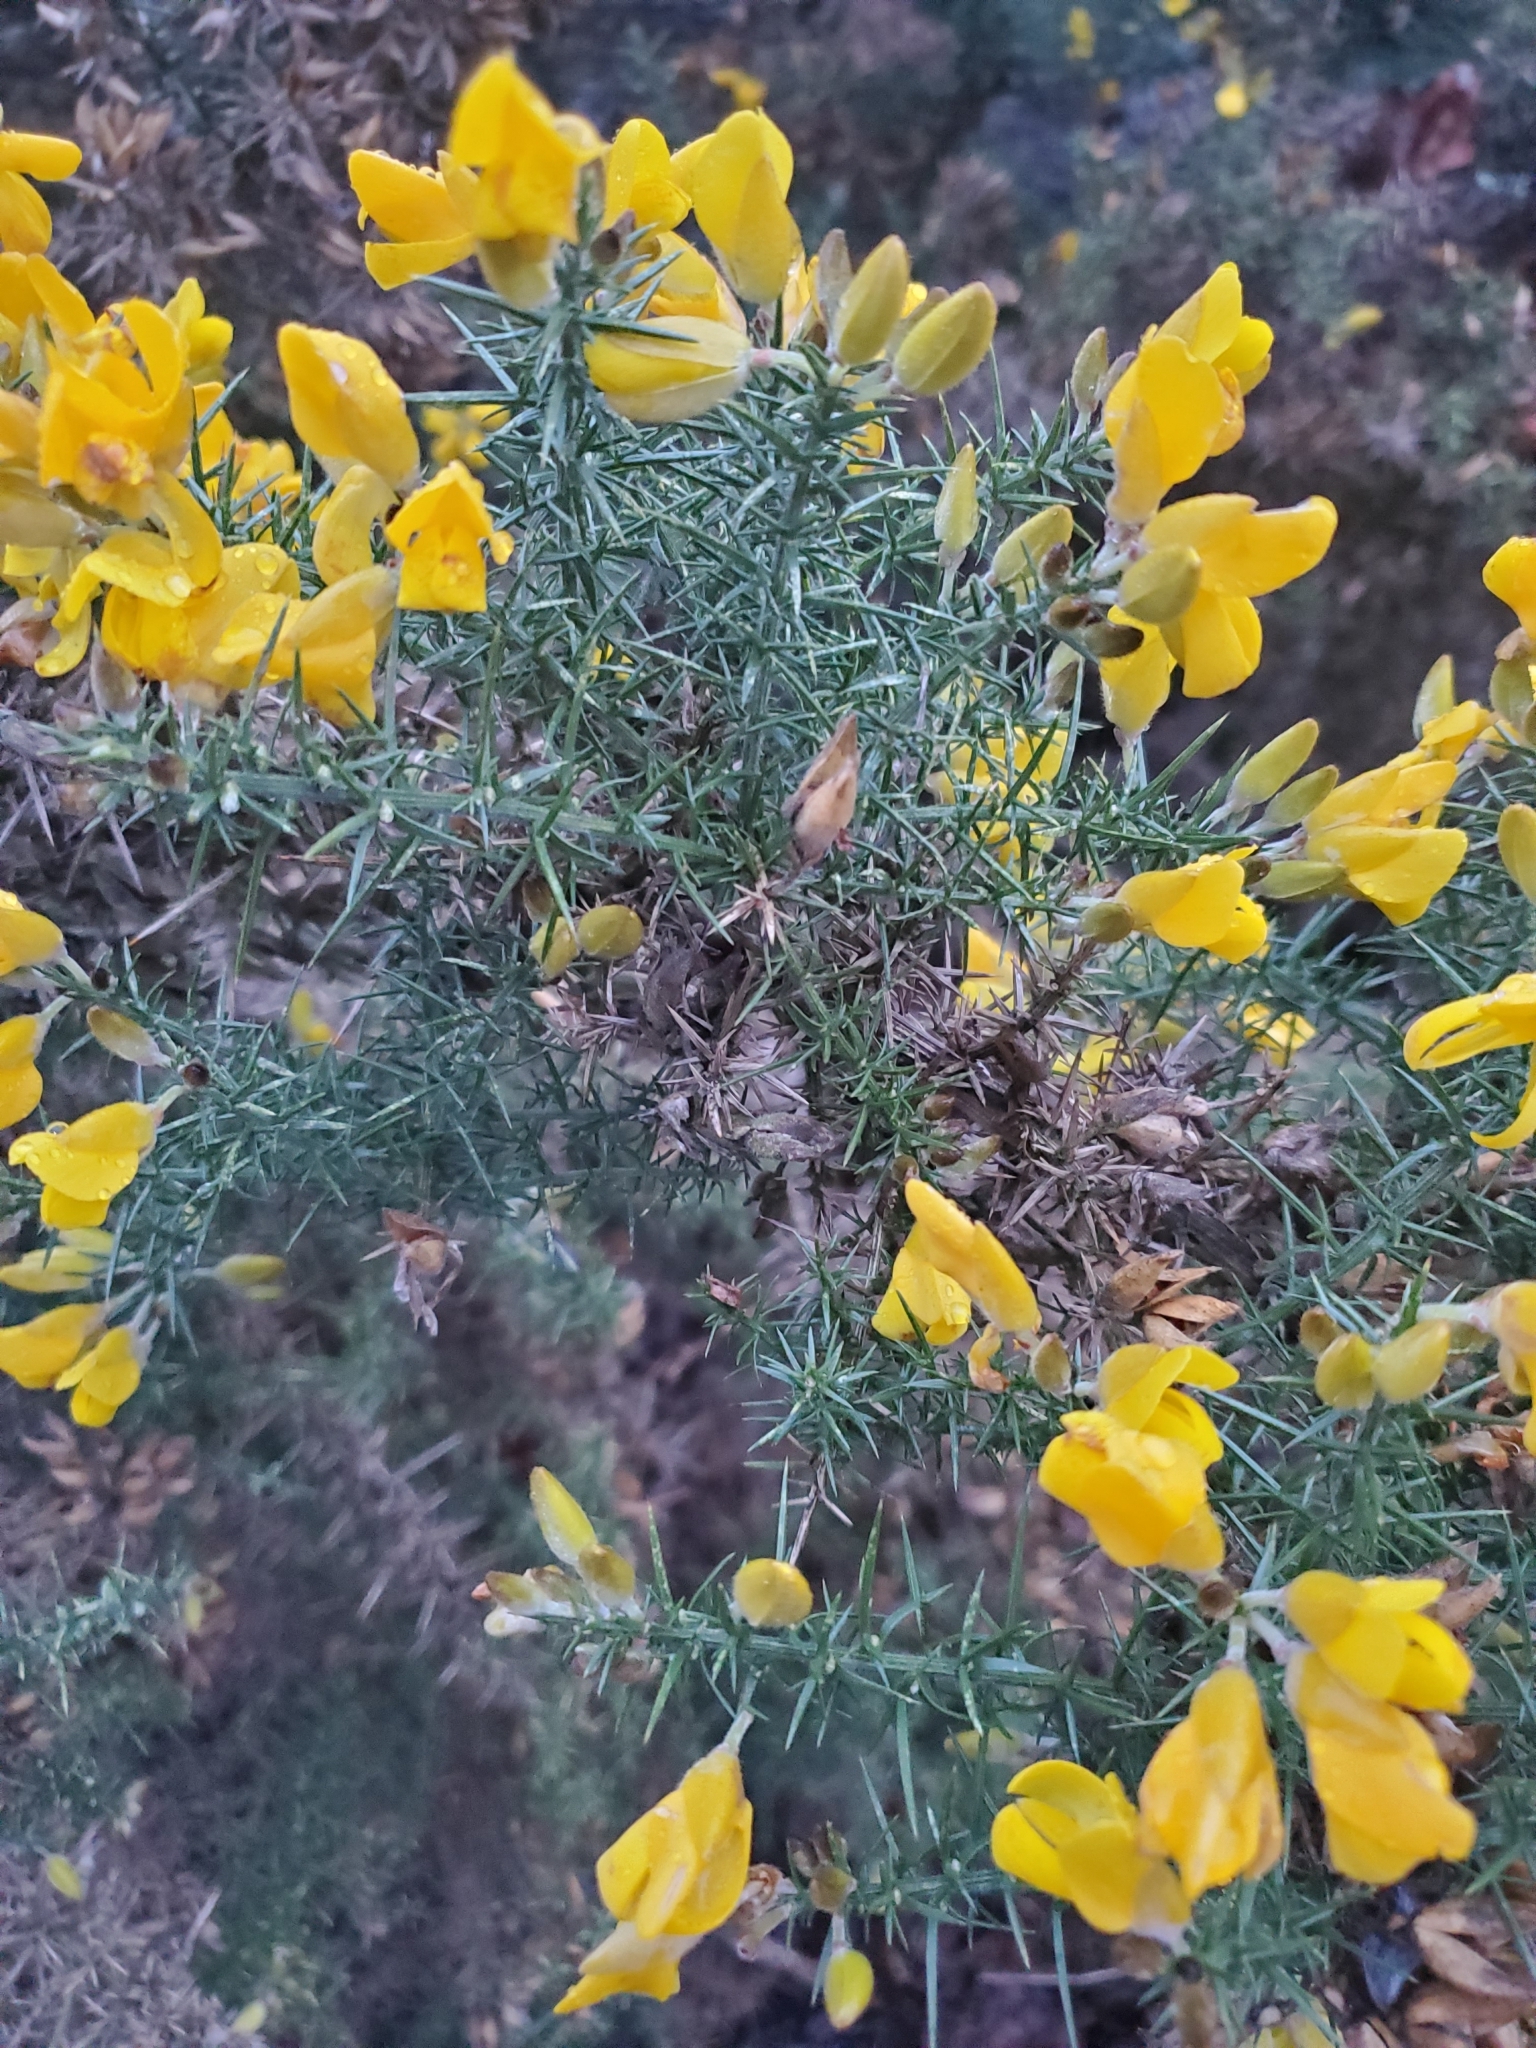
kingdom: Plantae
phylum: Tracheophyta
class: Magnoliopsida
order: Fabales
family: Fabaceae
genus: Ulex
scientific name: Ulex europaeus
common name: Common gorse
